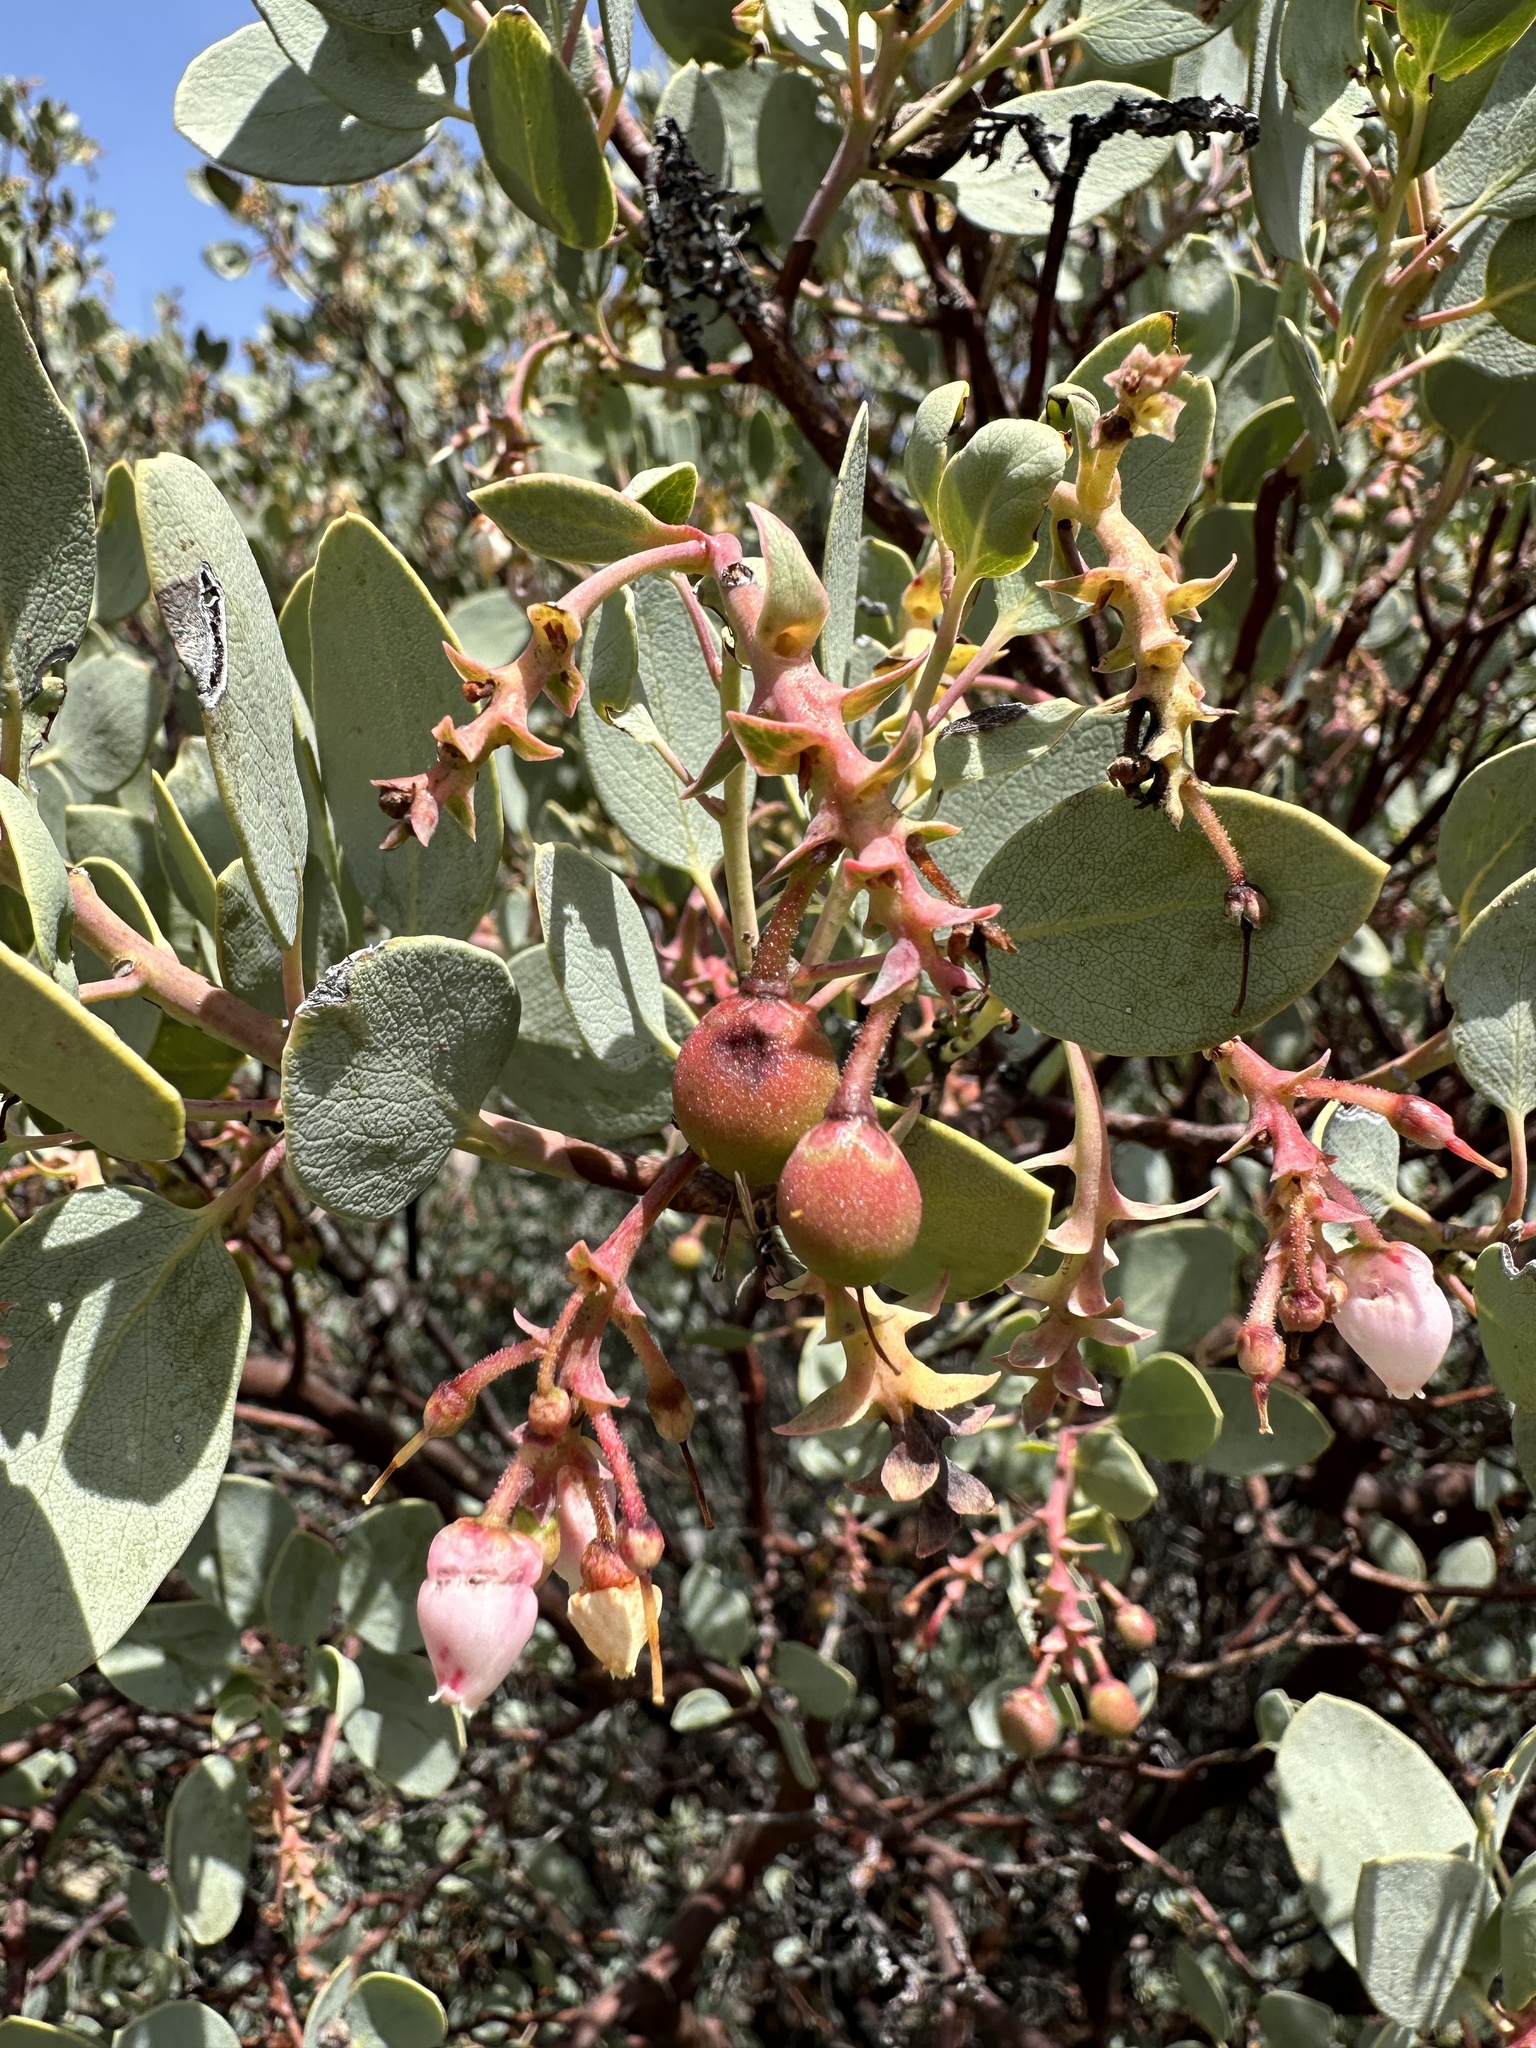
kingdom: Plantae
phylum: Tracheophyta
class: Magnoliopsida
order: Ericales
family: Ericaceae
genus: Arctostaphylos
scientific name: Arctostaphylos glauca
